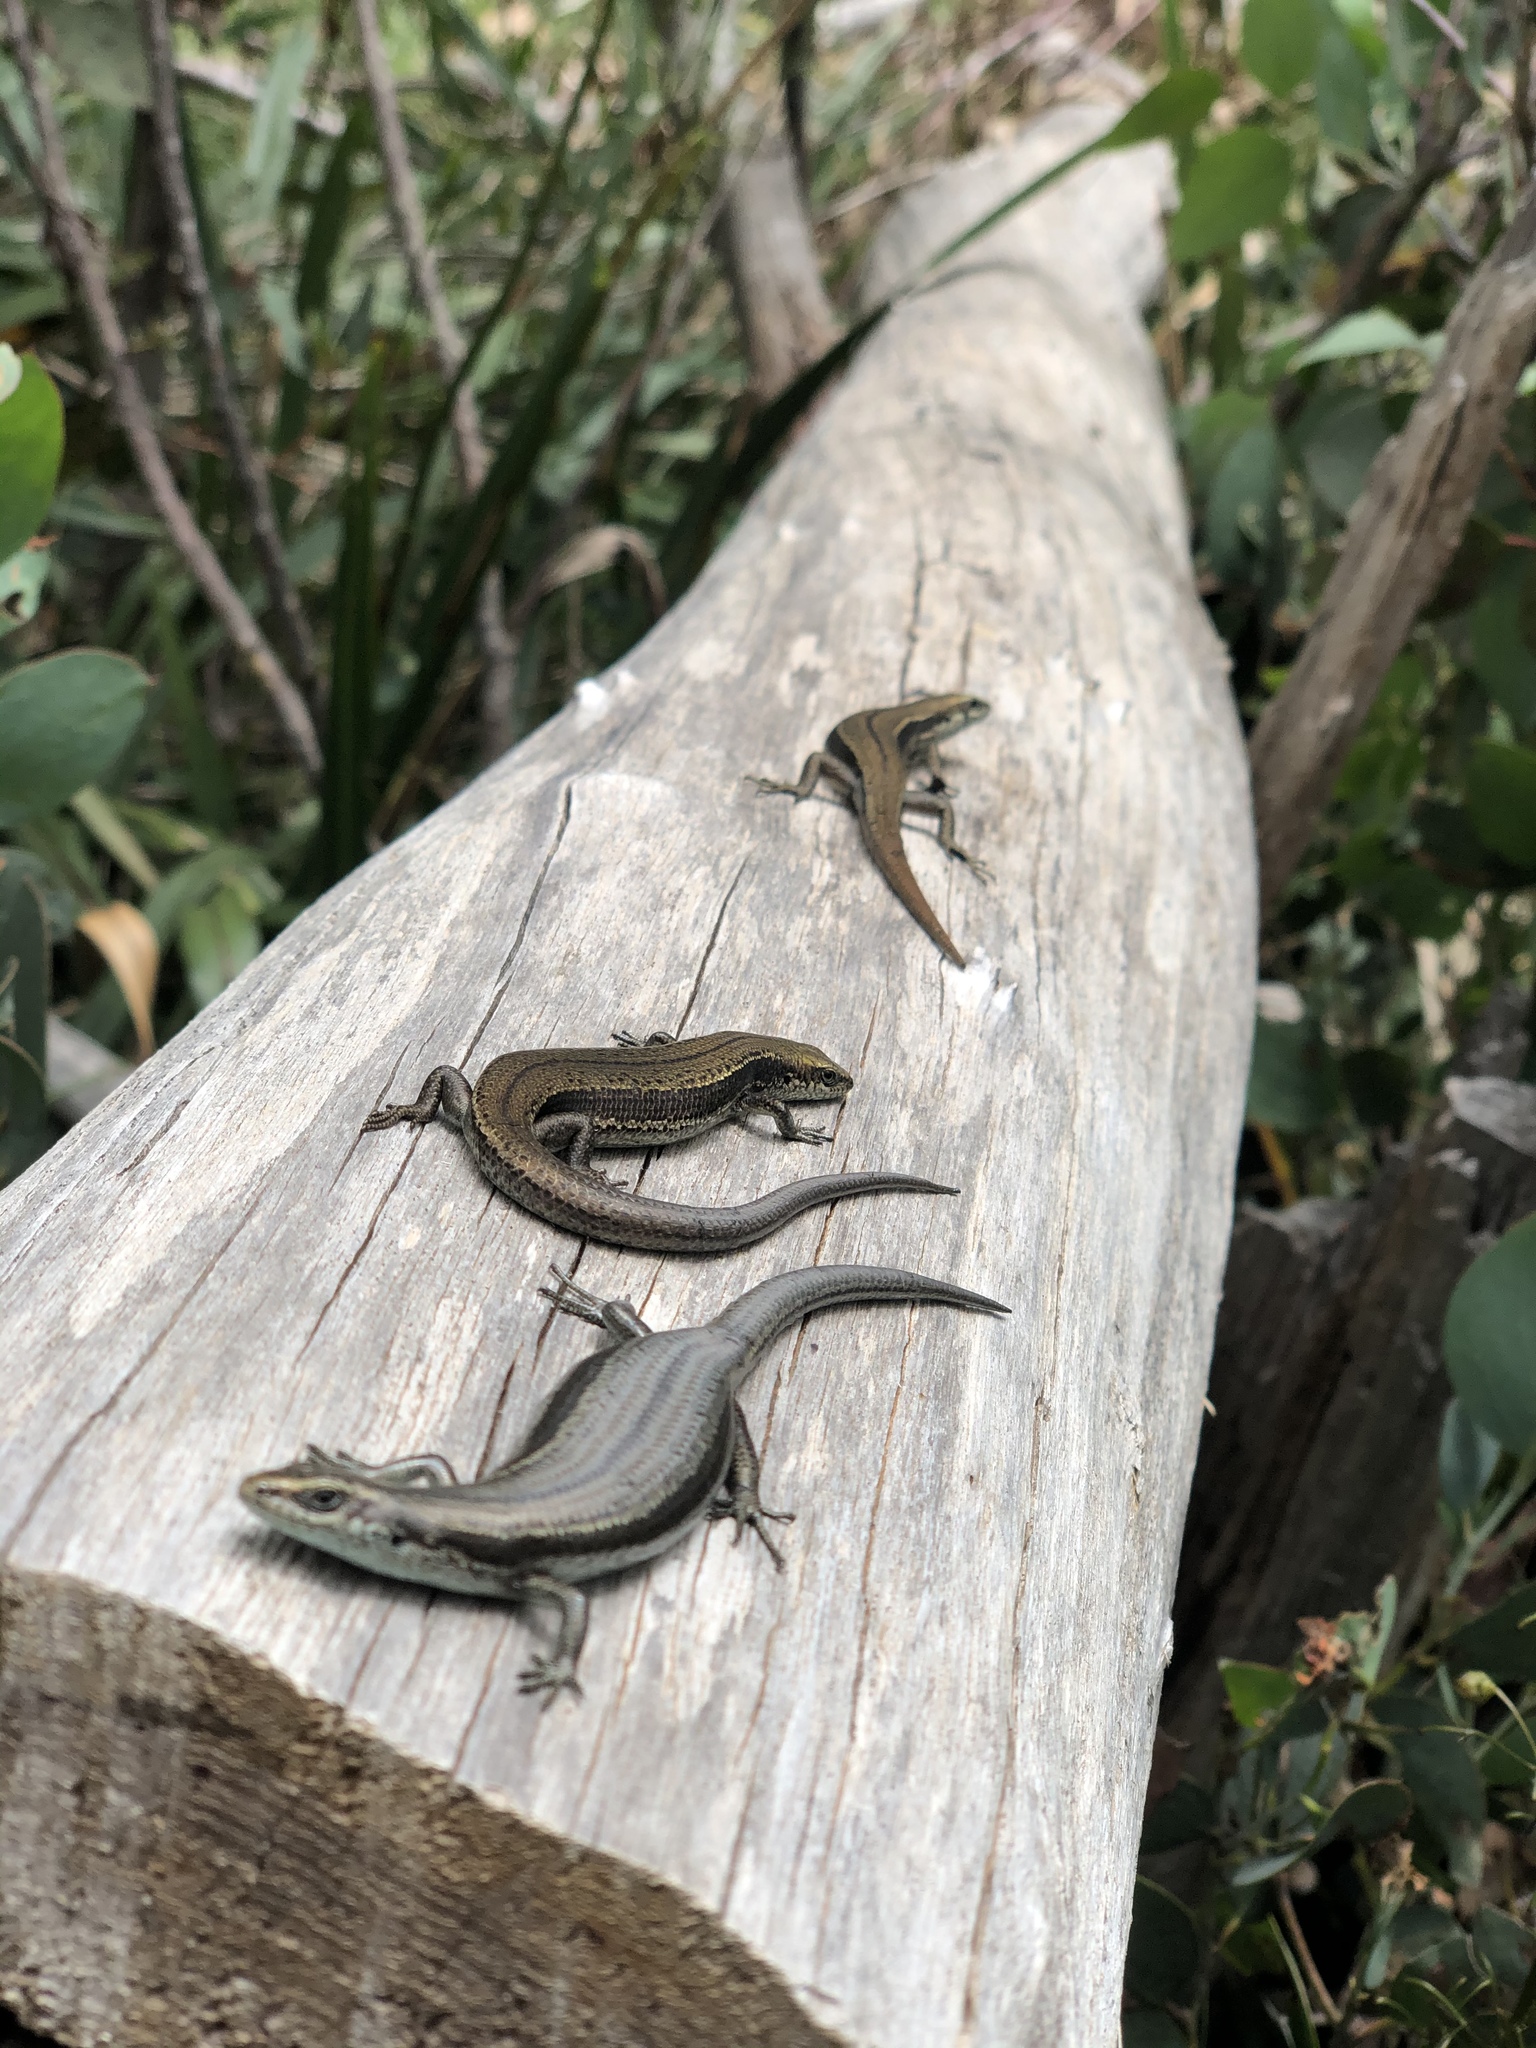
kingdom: Animalia
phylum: Chordata
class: Squamata
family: Scincidae
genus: Pseudemoia
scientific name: Pseudemoia entrecasteauxii
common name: Entrecasteaux's skink
